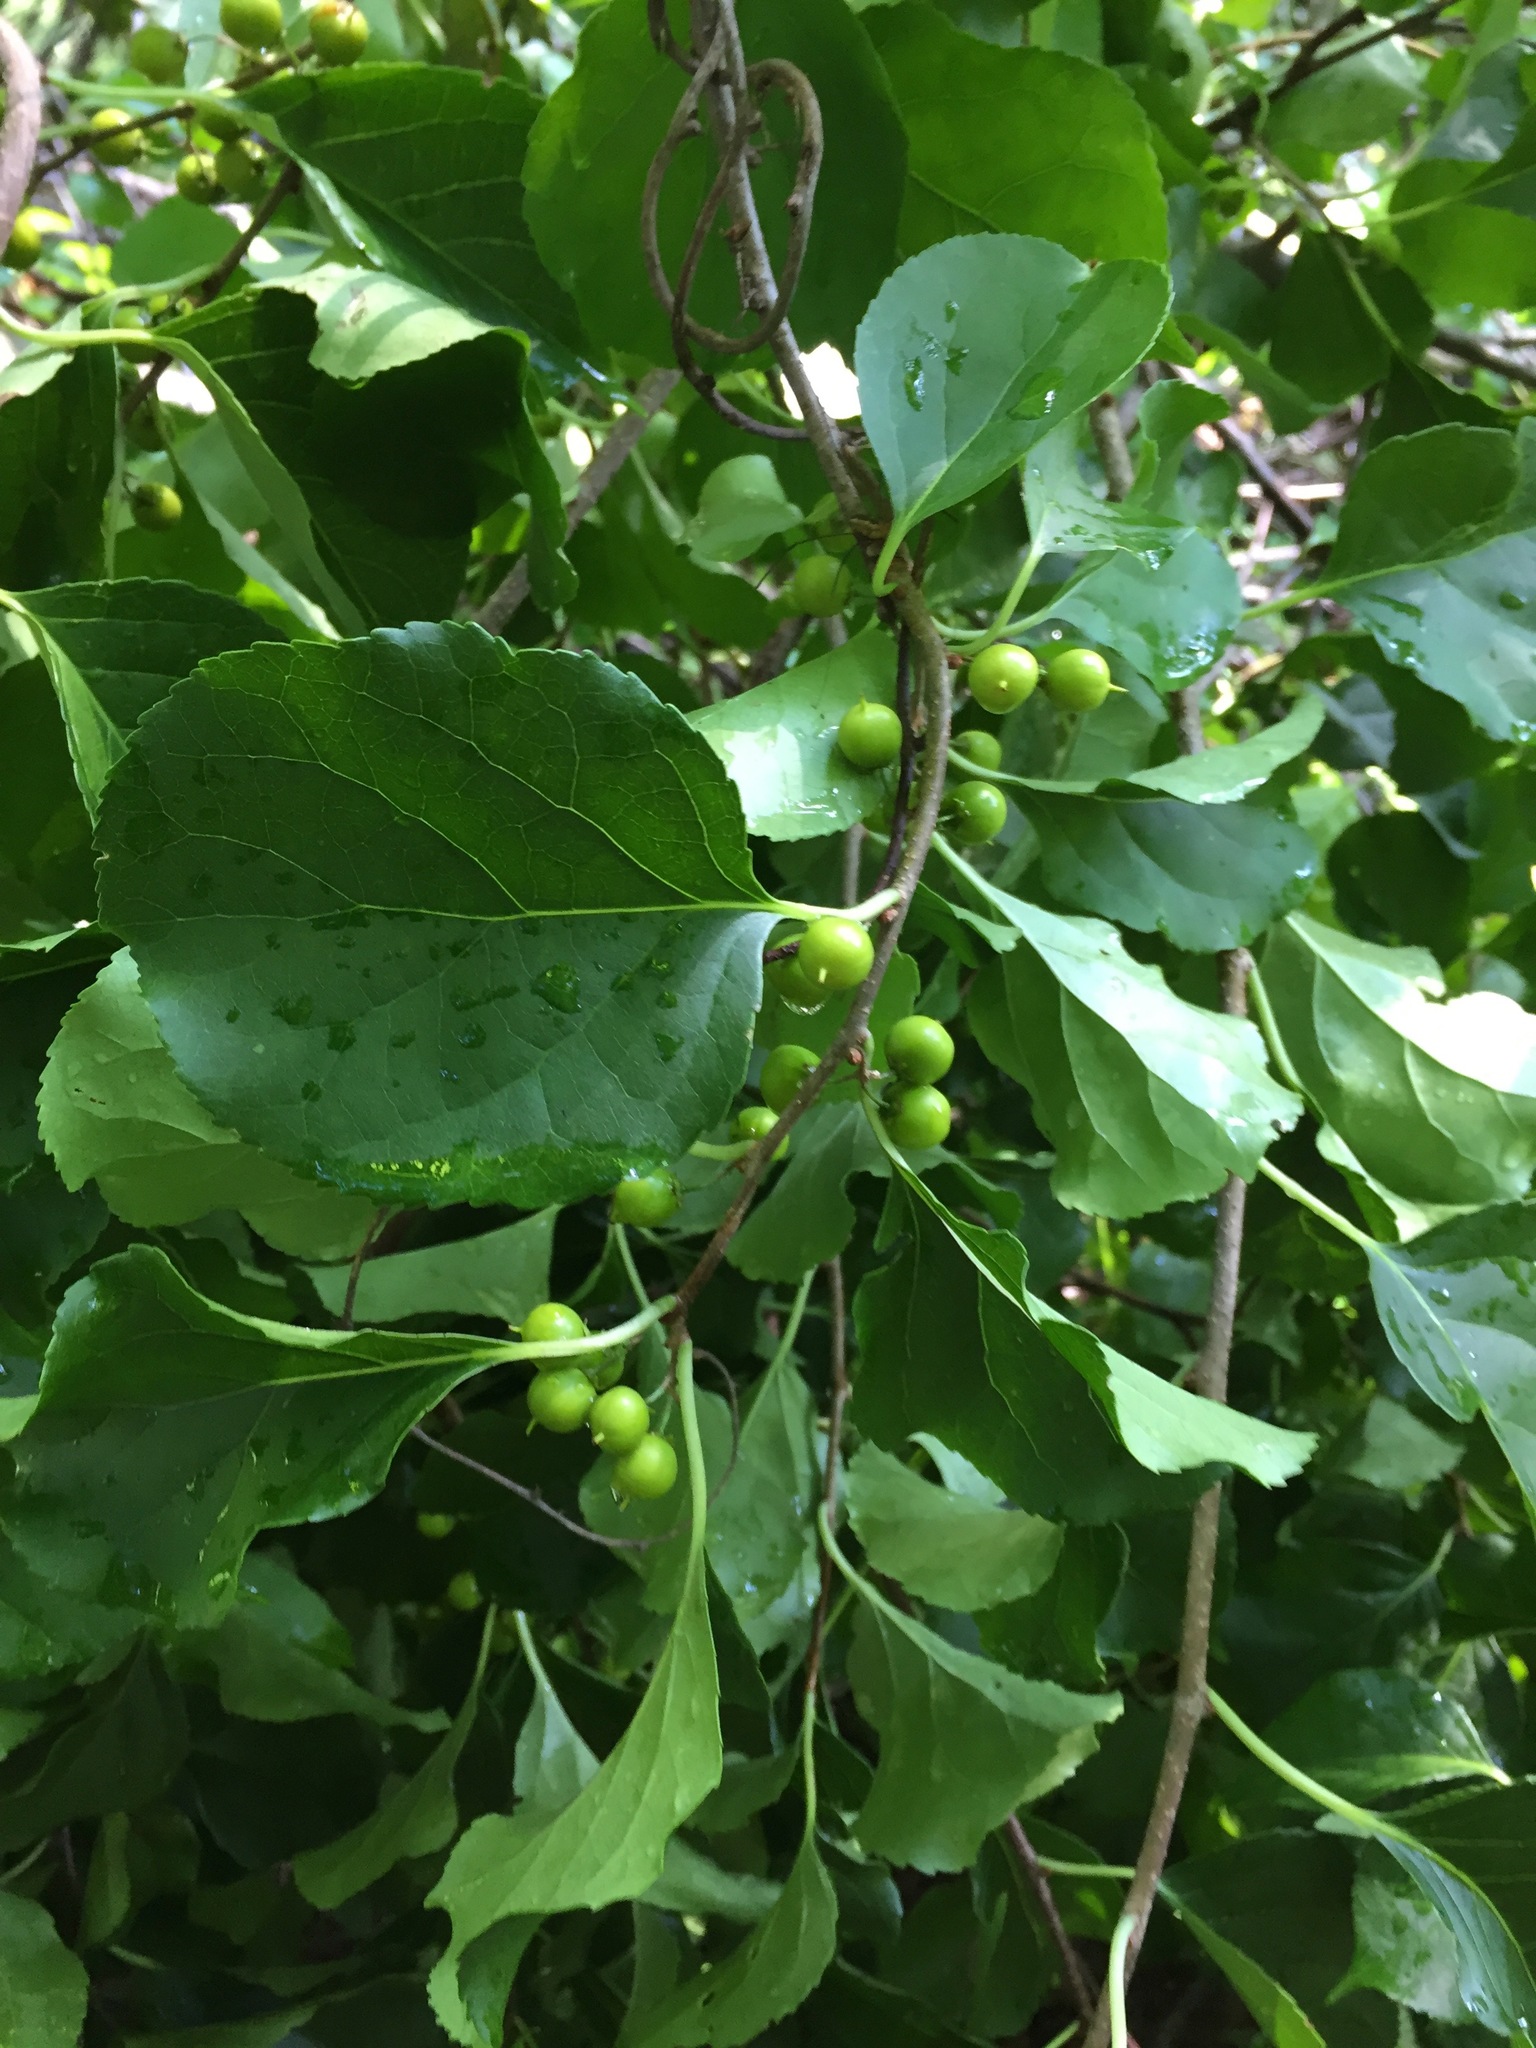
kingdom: Plantae
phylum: Tracheophyta
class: Magnoliopsida
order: Celastrales
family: Celastraceae
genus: Celastrus
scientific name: Celastrus orbiculatus
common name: Oriental bittersweet
